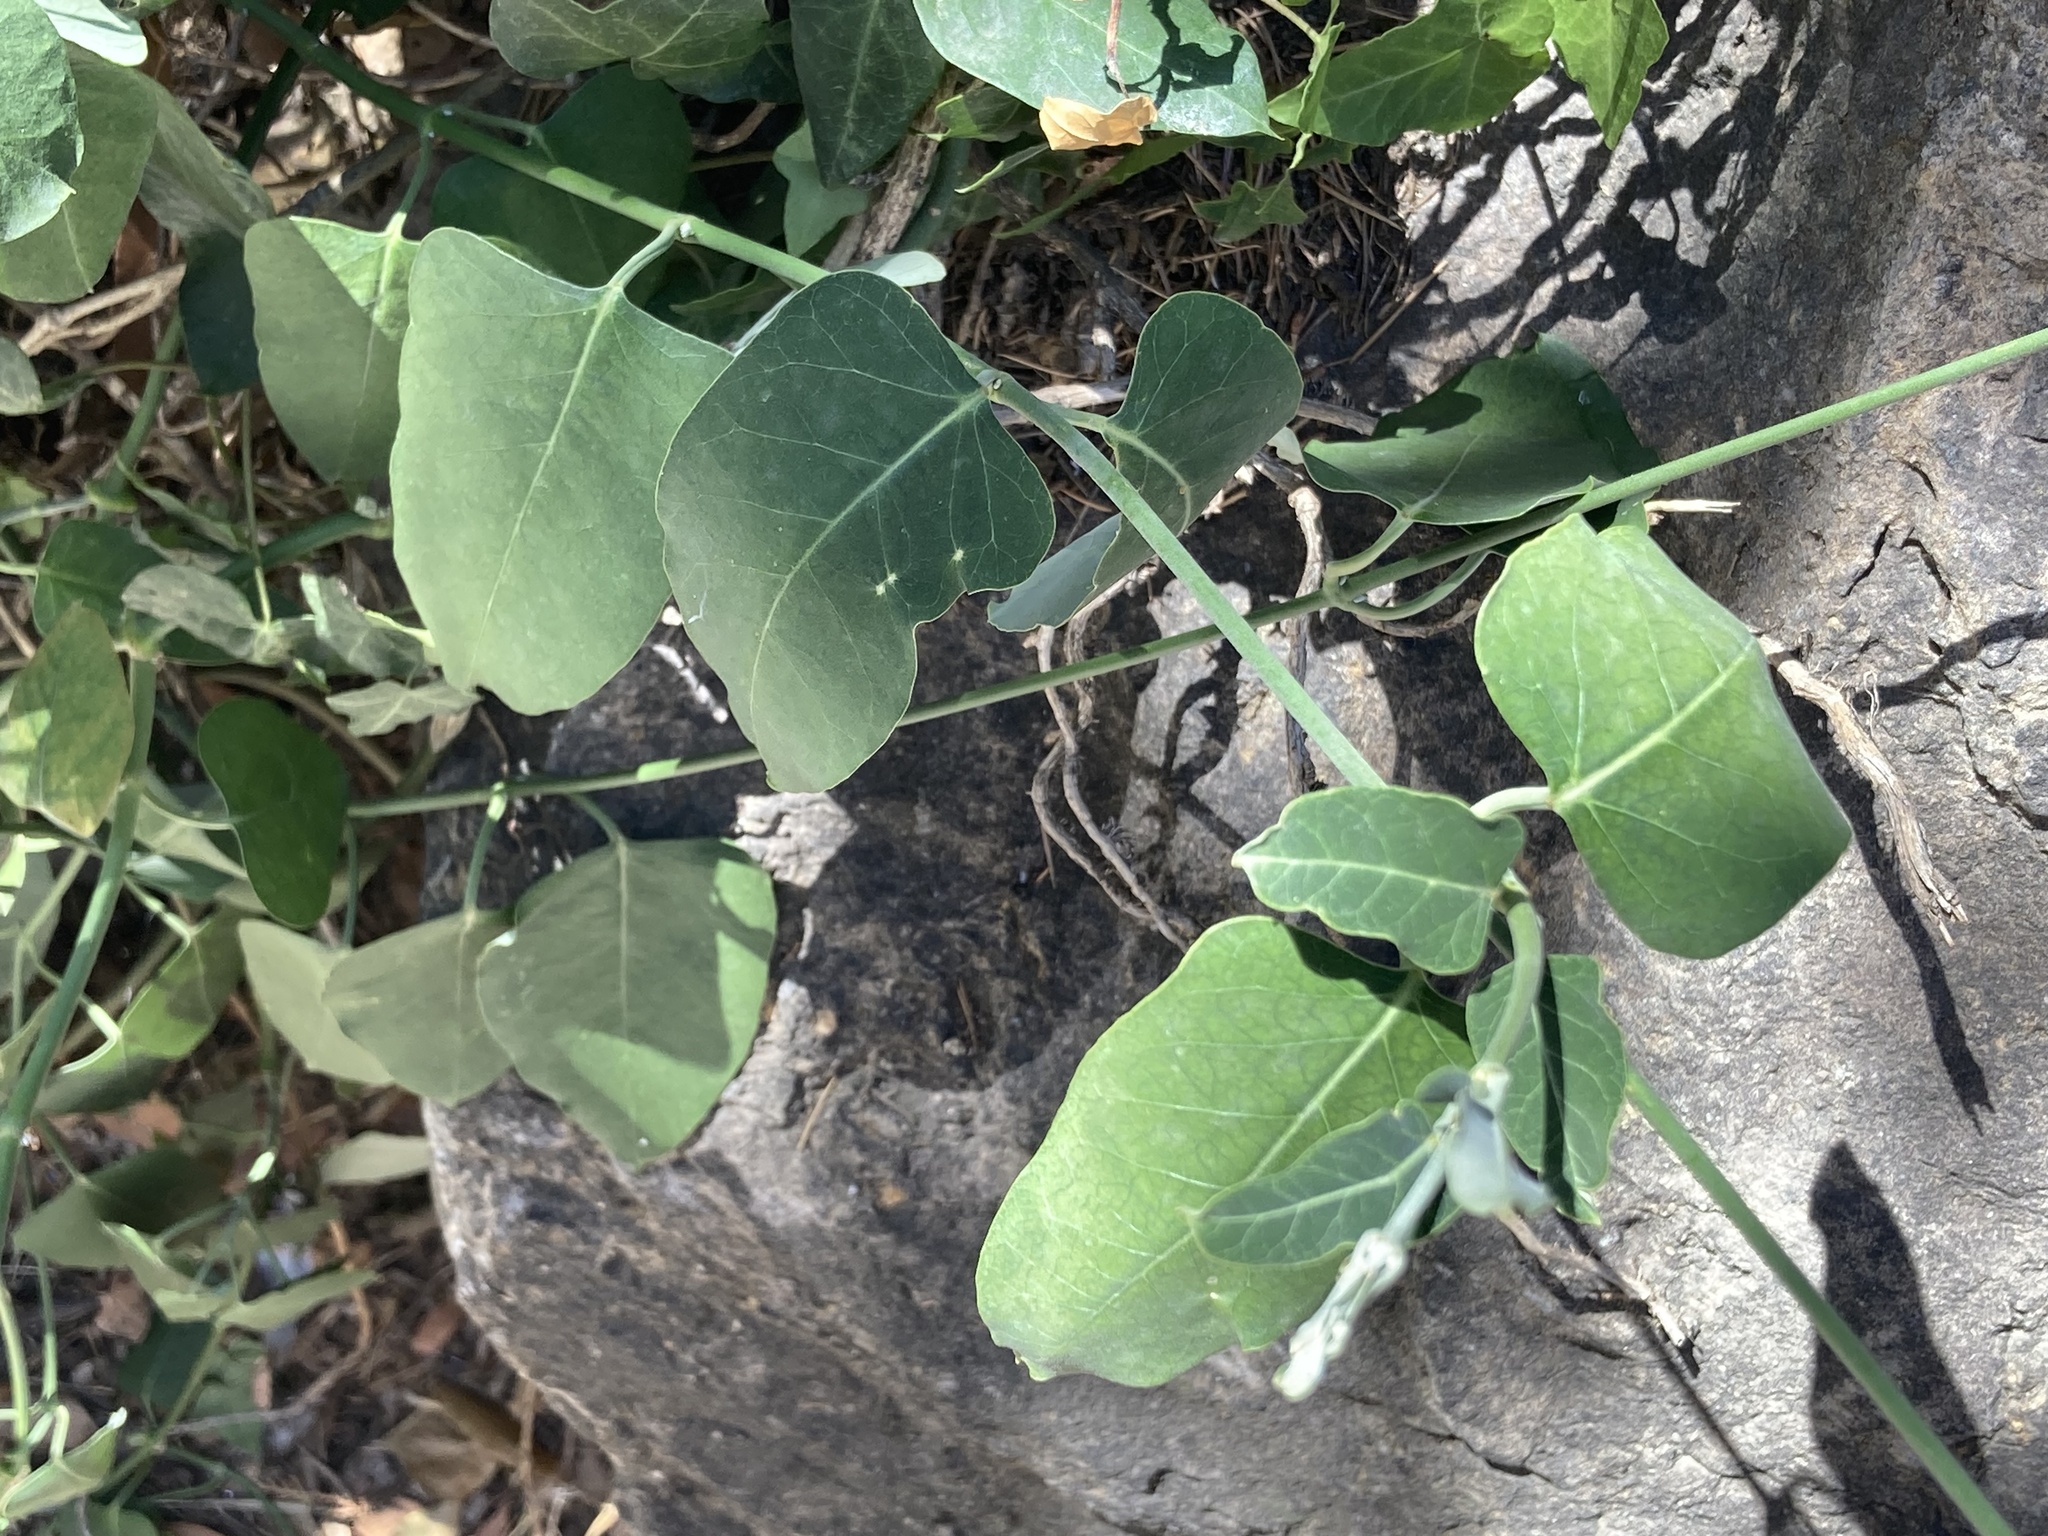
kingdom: Plantae
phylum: Tracheophyta
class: Magnoliopsida
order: Gentianales
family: Apocynaceae
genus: Araujia
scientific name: Araujia sericifera
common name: White bladderflower
